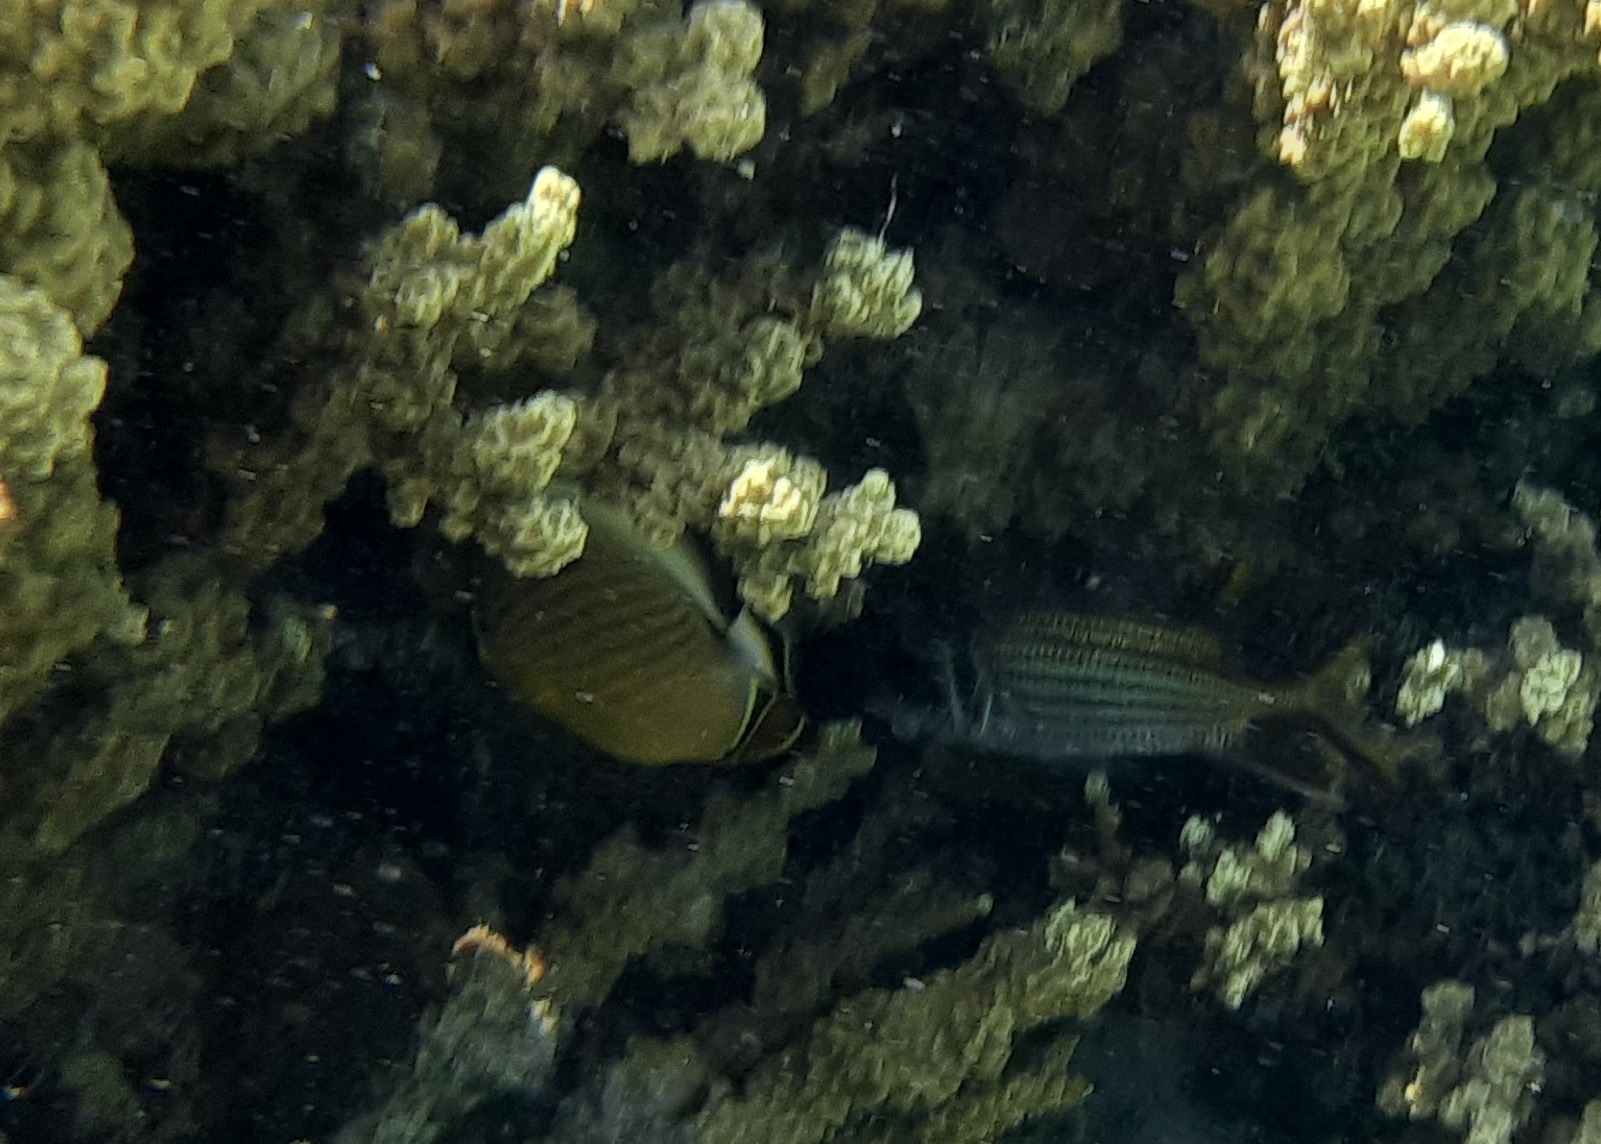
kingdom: Animalia
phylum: Chordata
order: Perciformes
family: Chaetodontidae
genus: Chaetodon
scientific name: Chaetodon lunulatus
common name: Redfin butterflyfish
